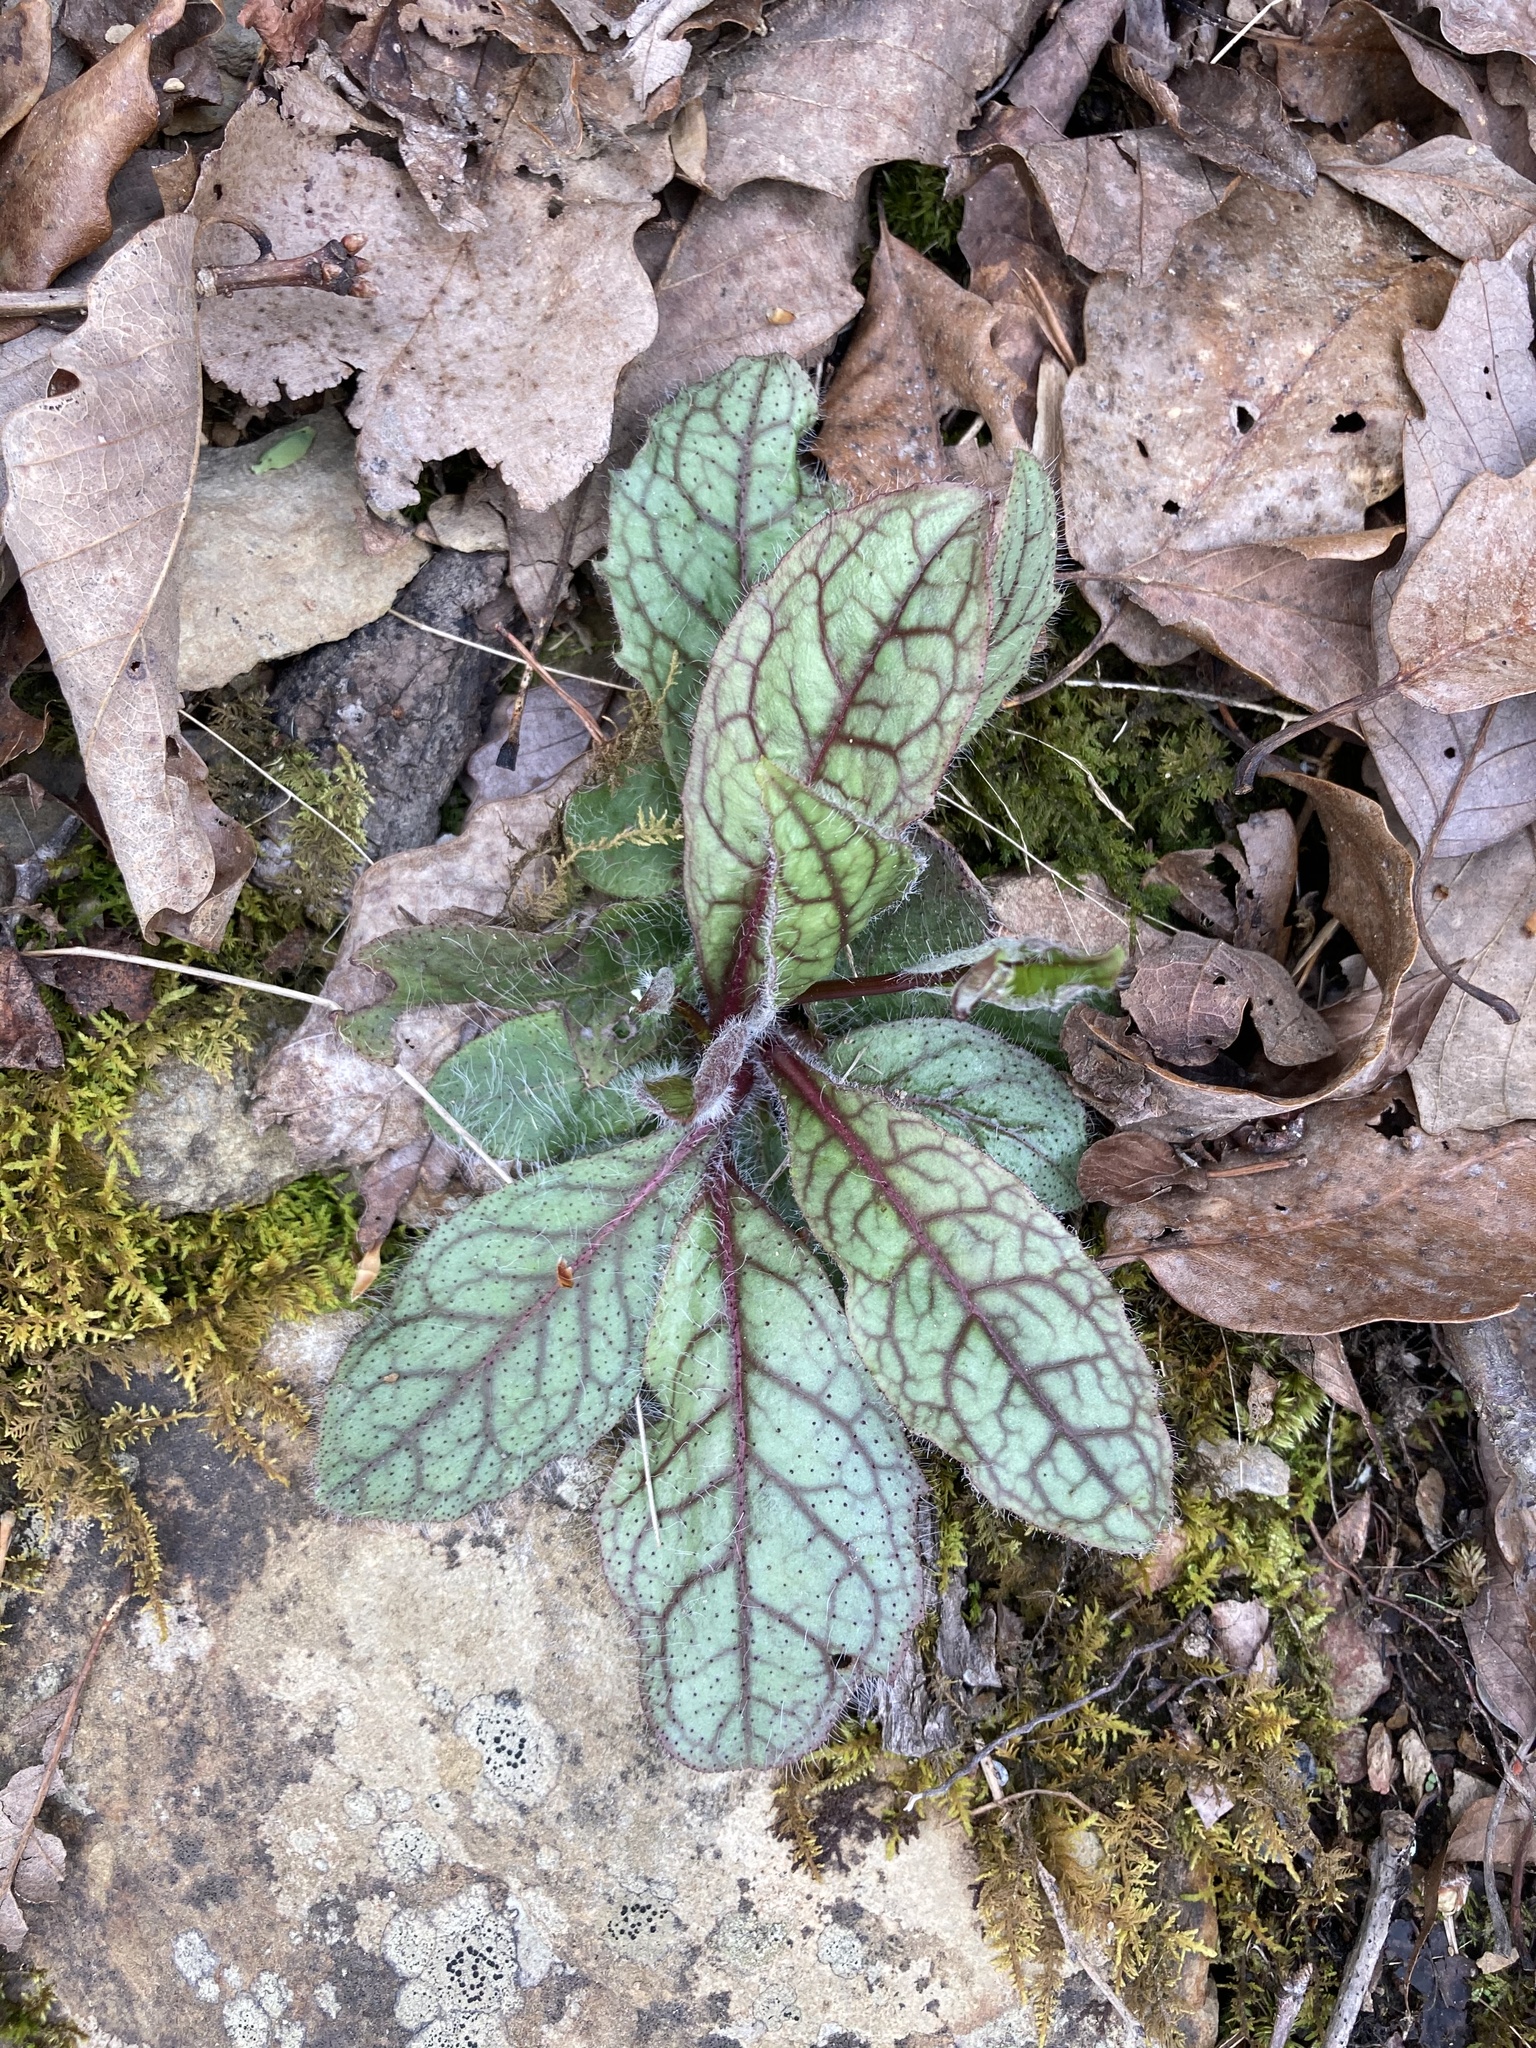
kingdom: Plantae
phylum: Tracheophyta
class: Magnoliopsida
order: Asterales
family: Asteraceae
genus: Hieracium
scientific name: Hieracium venosum
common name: Rattlesnake hawkweed
